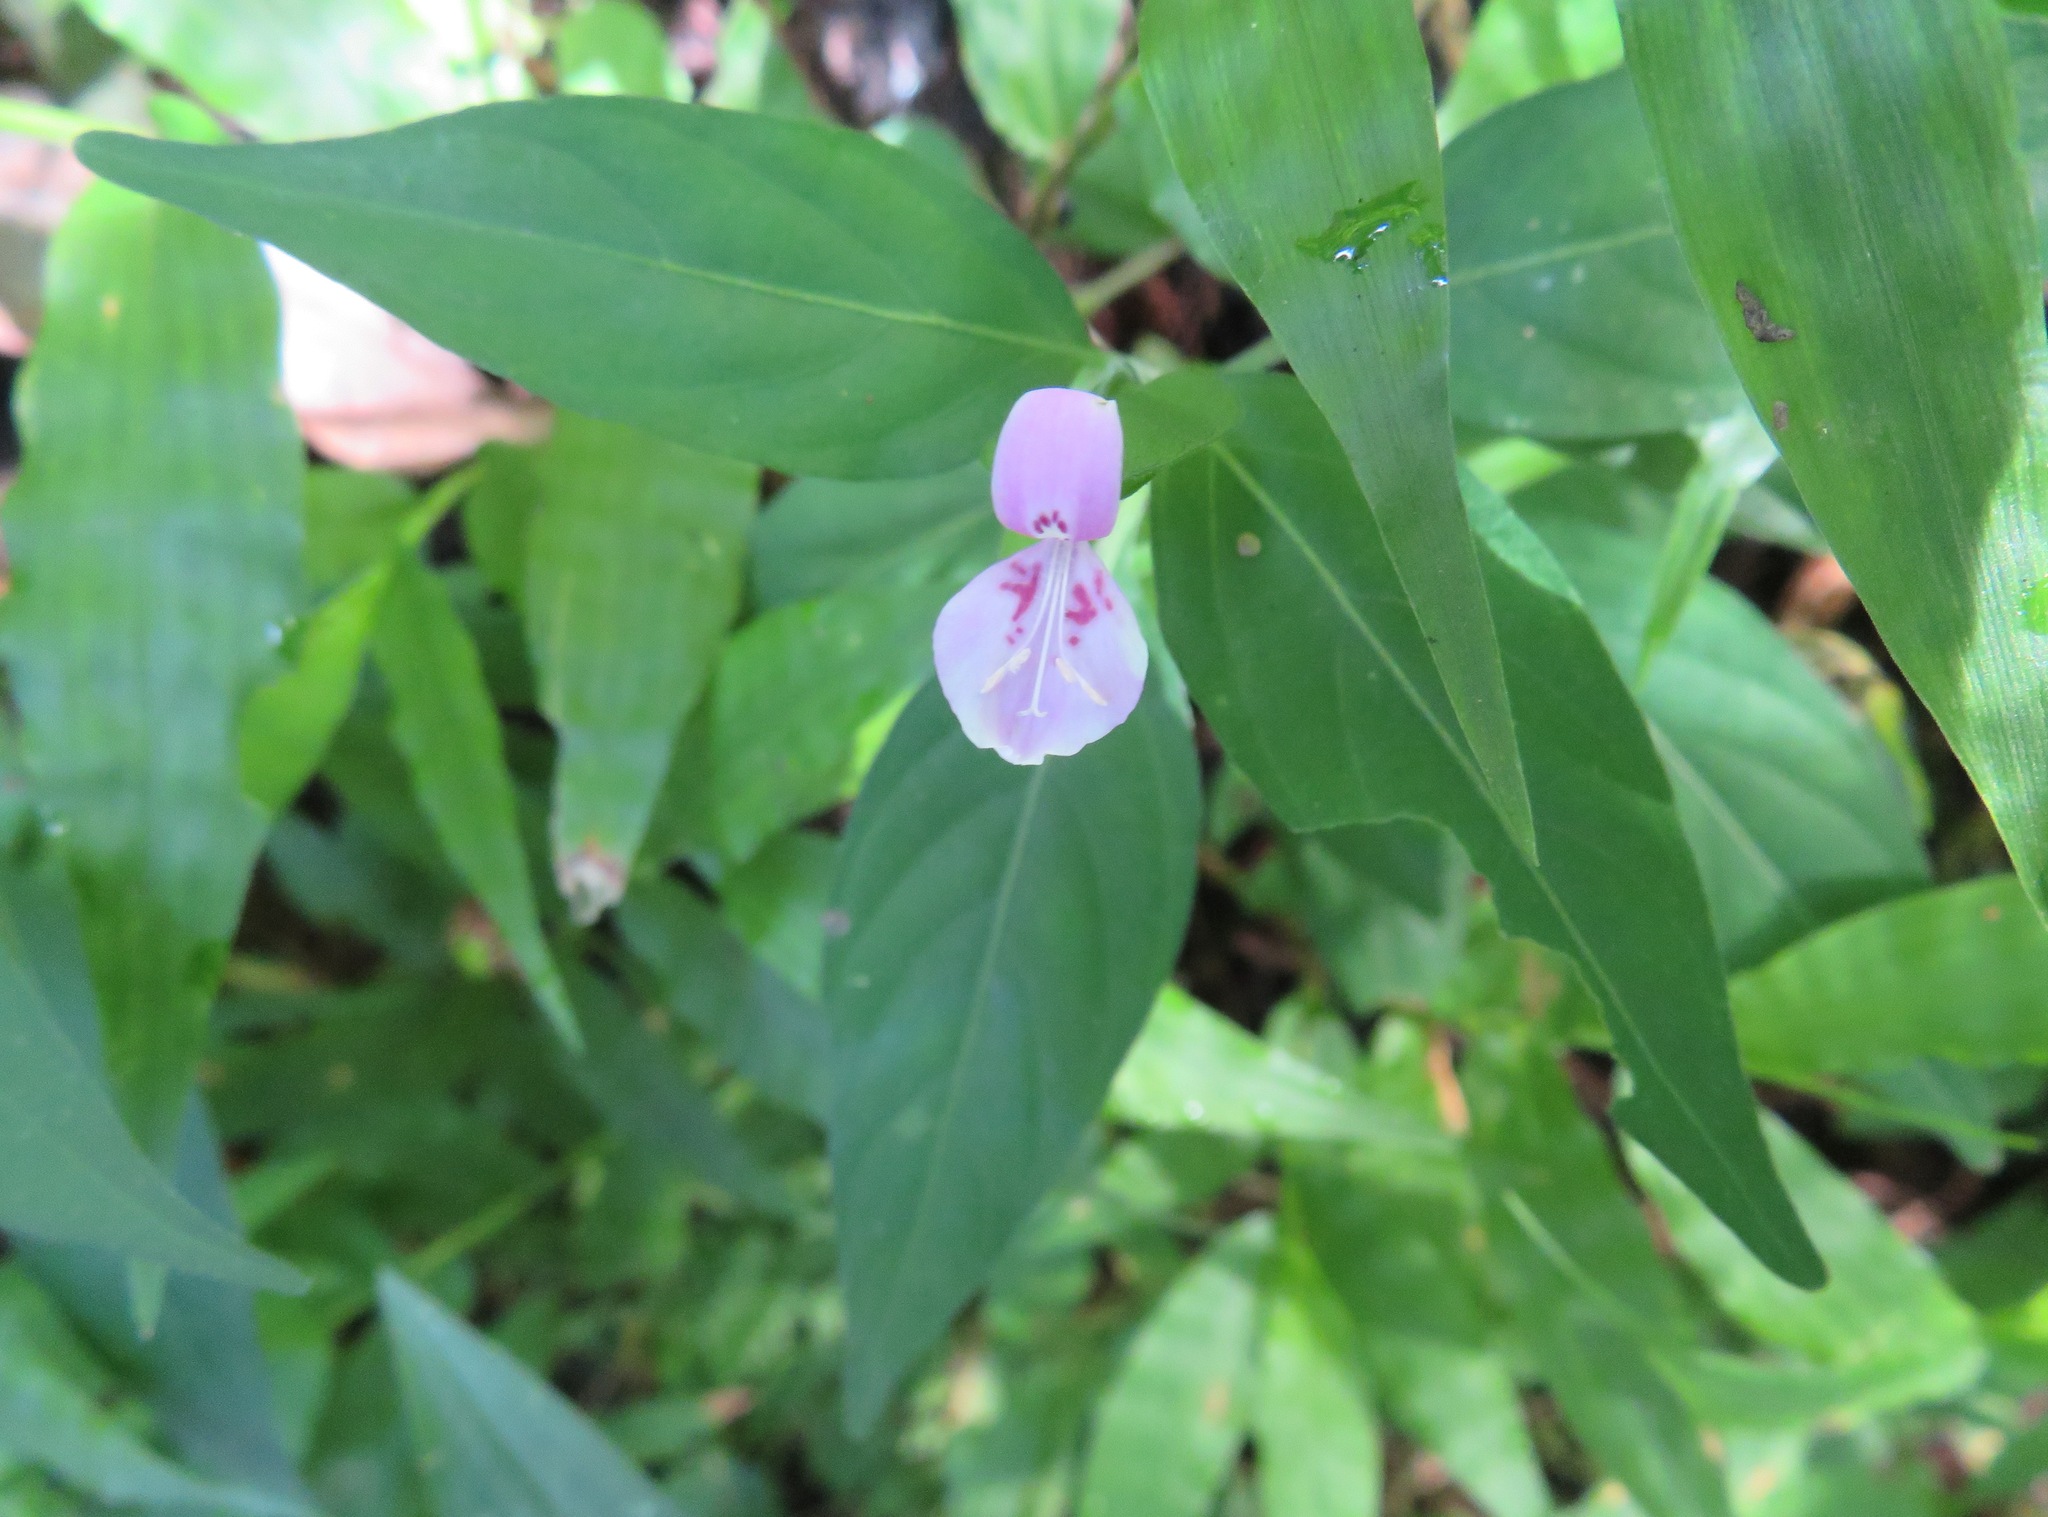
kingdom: Plantae
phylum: Tracheophyta
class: Magnoliopsida
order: Lamiales
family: Acanthaceae
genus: Dicliptera
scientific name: Dicliptera japonica
